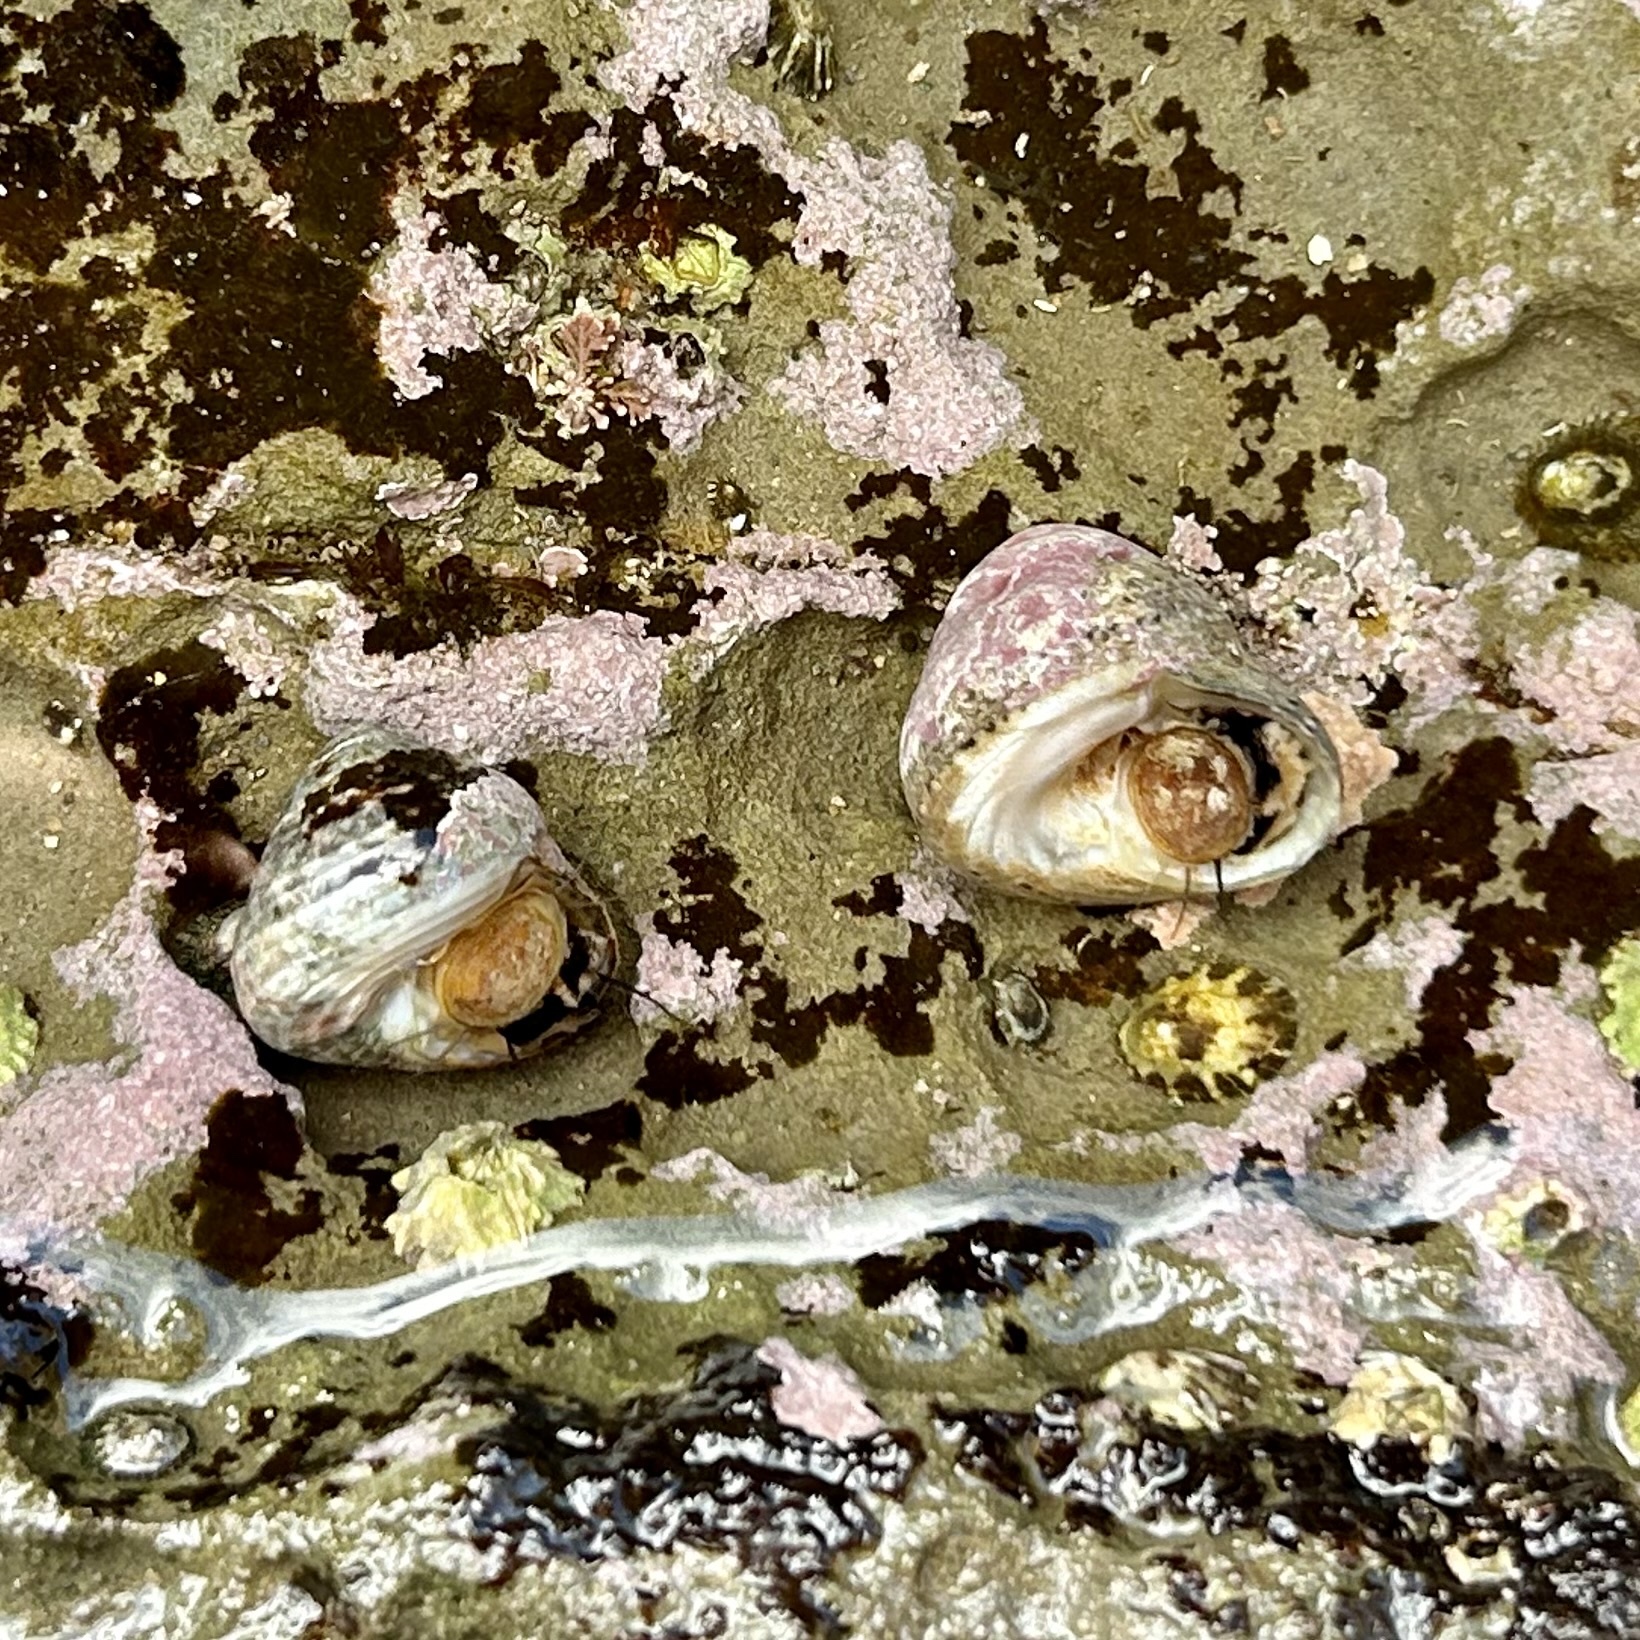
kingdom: Animalia
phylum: Mollusca
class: Gastropoda
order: Trochida
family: Tegulidae
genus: Tegula
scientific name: Tegula eiseni
